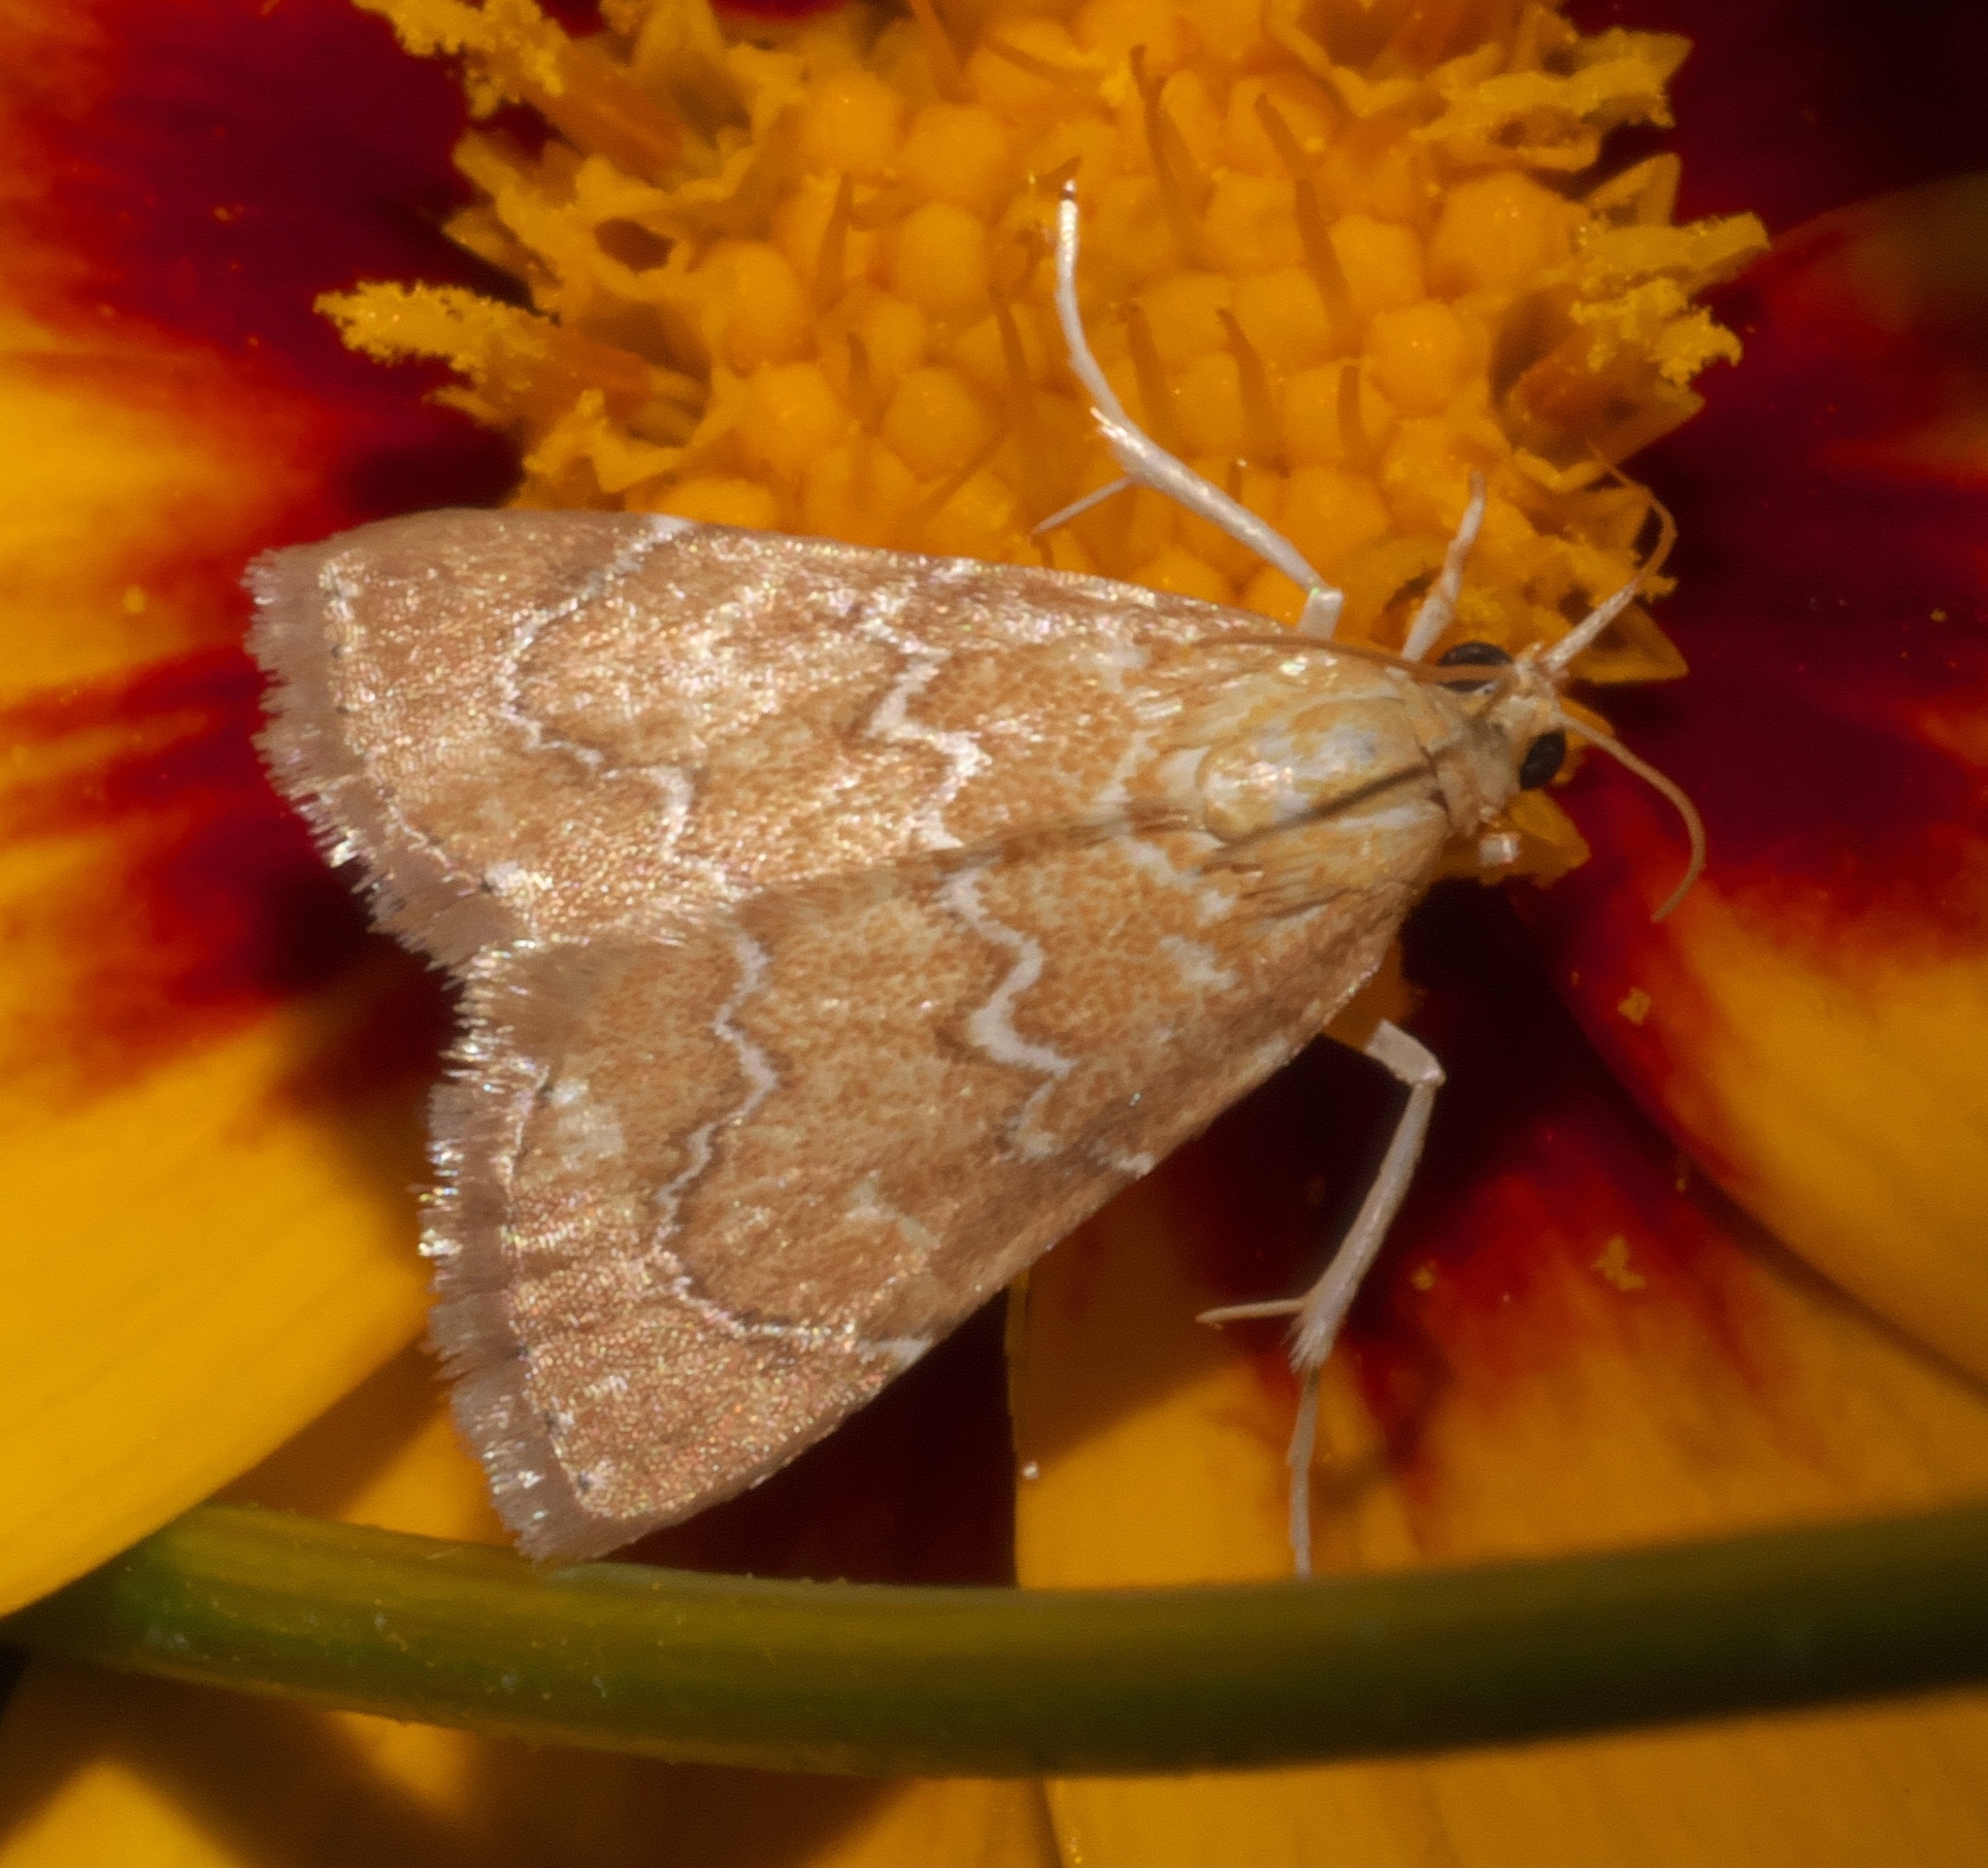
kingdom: Animalia
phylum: Arthropoda
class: Insecta
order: Lepidoptera
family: Crambidae
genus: Glaphyria
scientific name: Glaphyria sesquistrialis
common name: White-roped glaphyria
